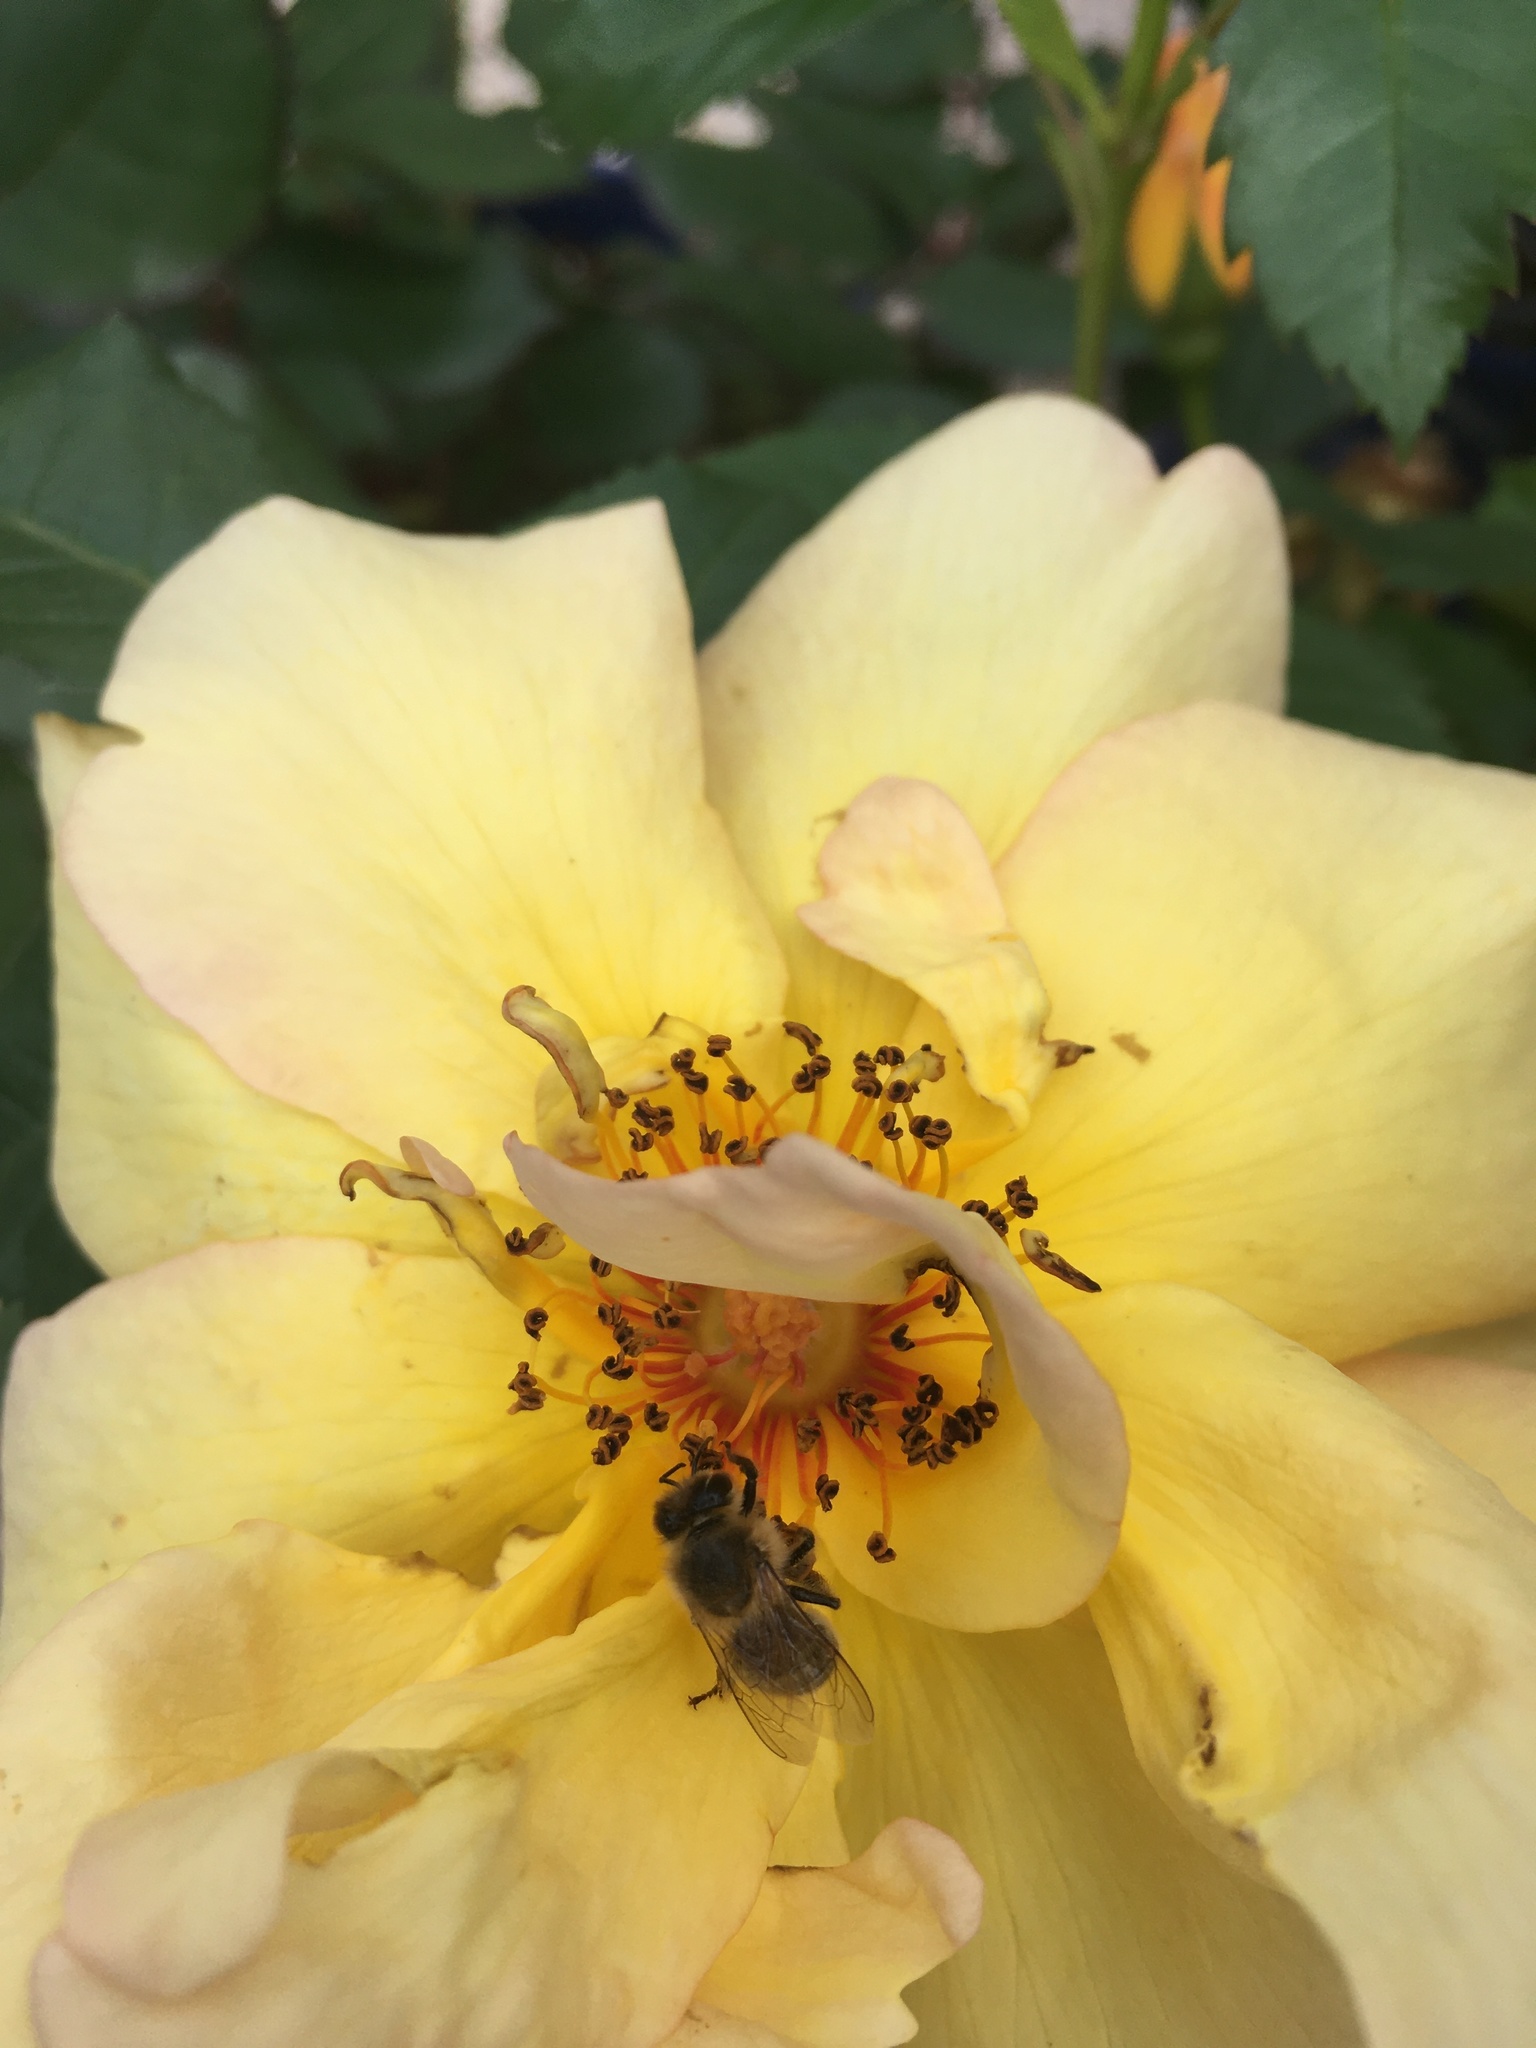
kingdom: Animalia
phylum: Arthropoda
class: Insecta
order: Hymenoptera
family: Apidae
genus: Apis
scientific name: Apis mellifera
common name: Honey bee
